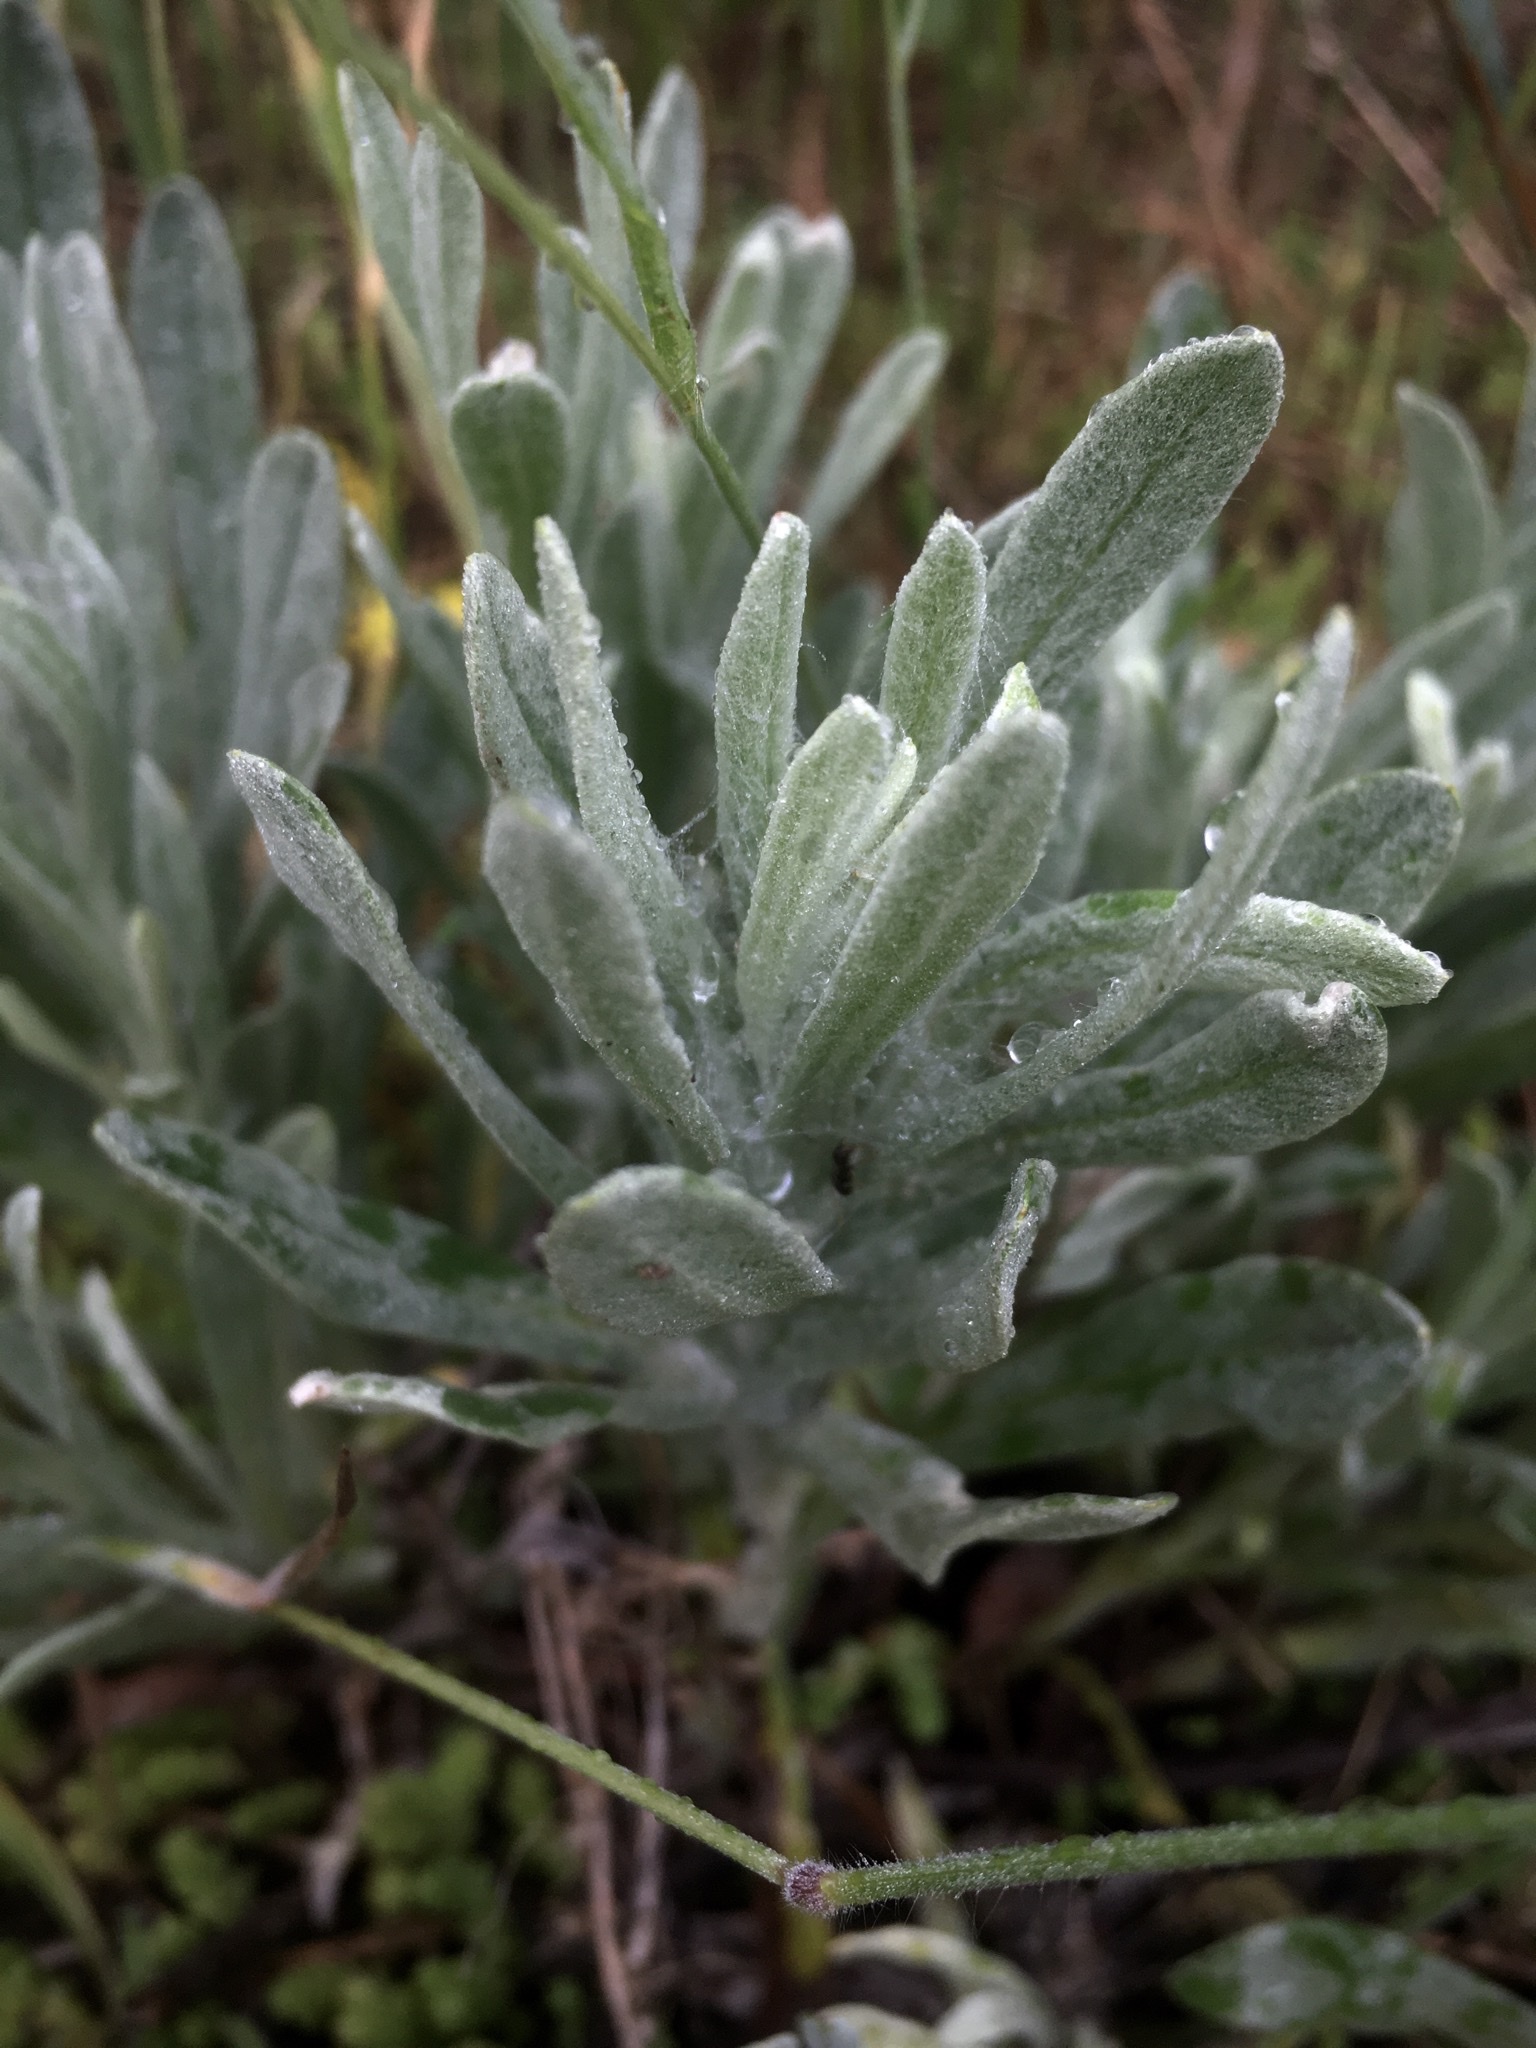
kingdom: Plantae
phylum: Tracheophyta
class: Magnoliopsida
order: Asterales
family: Asteraceae
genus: Helichrysum
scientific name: Helichrysum arenarium
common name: Strawflower
